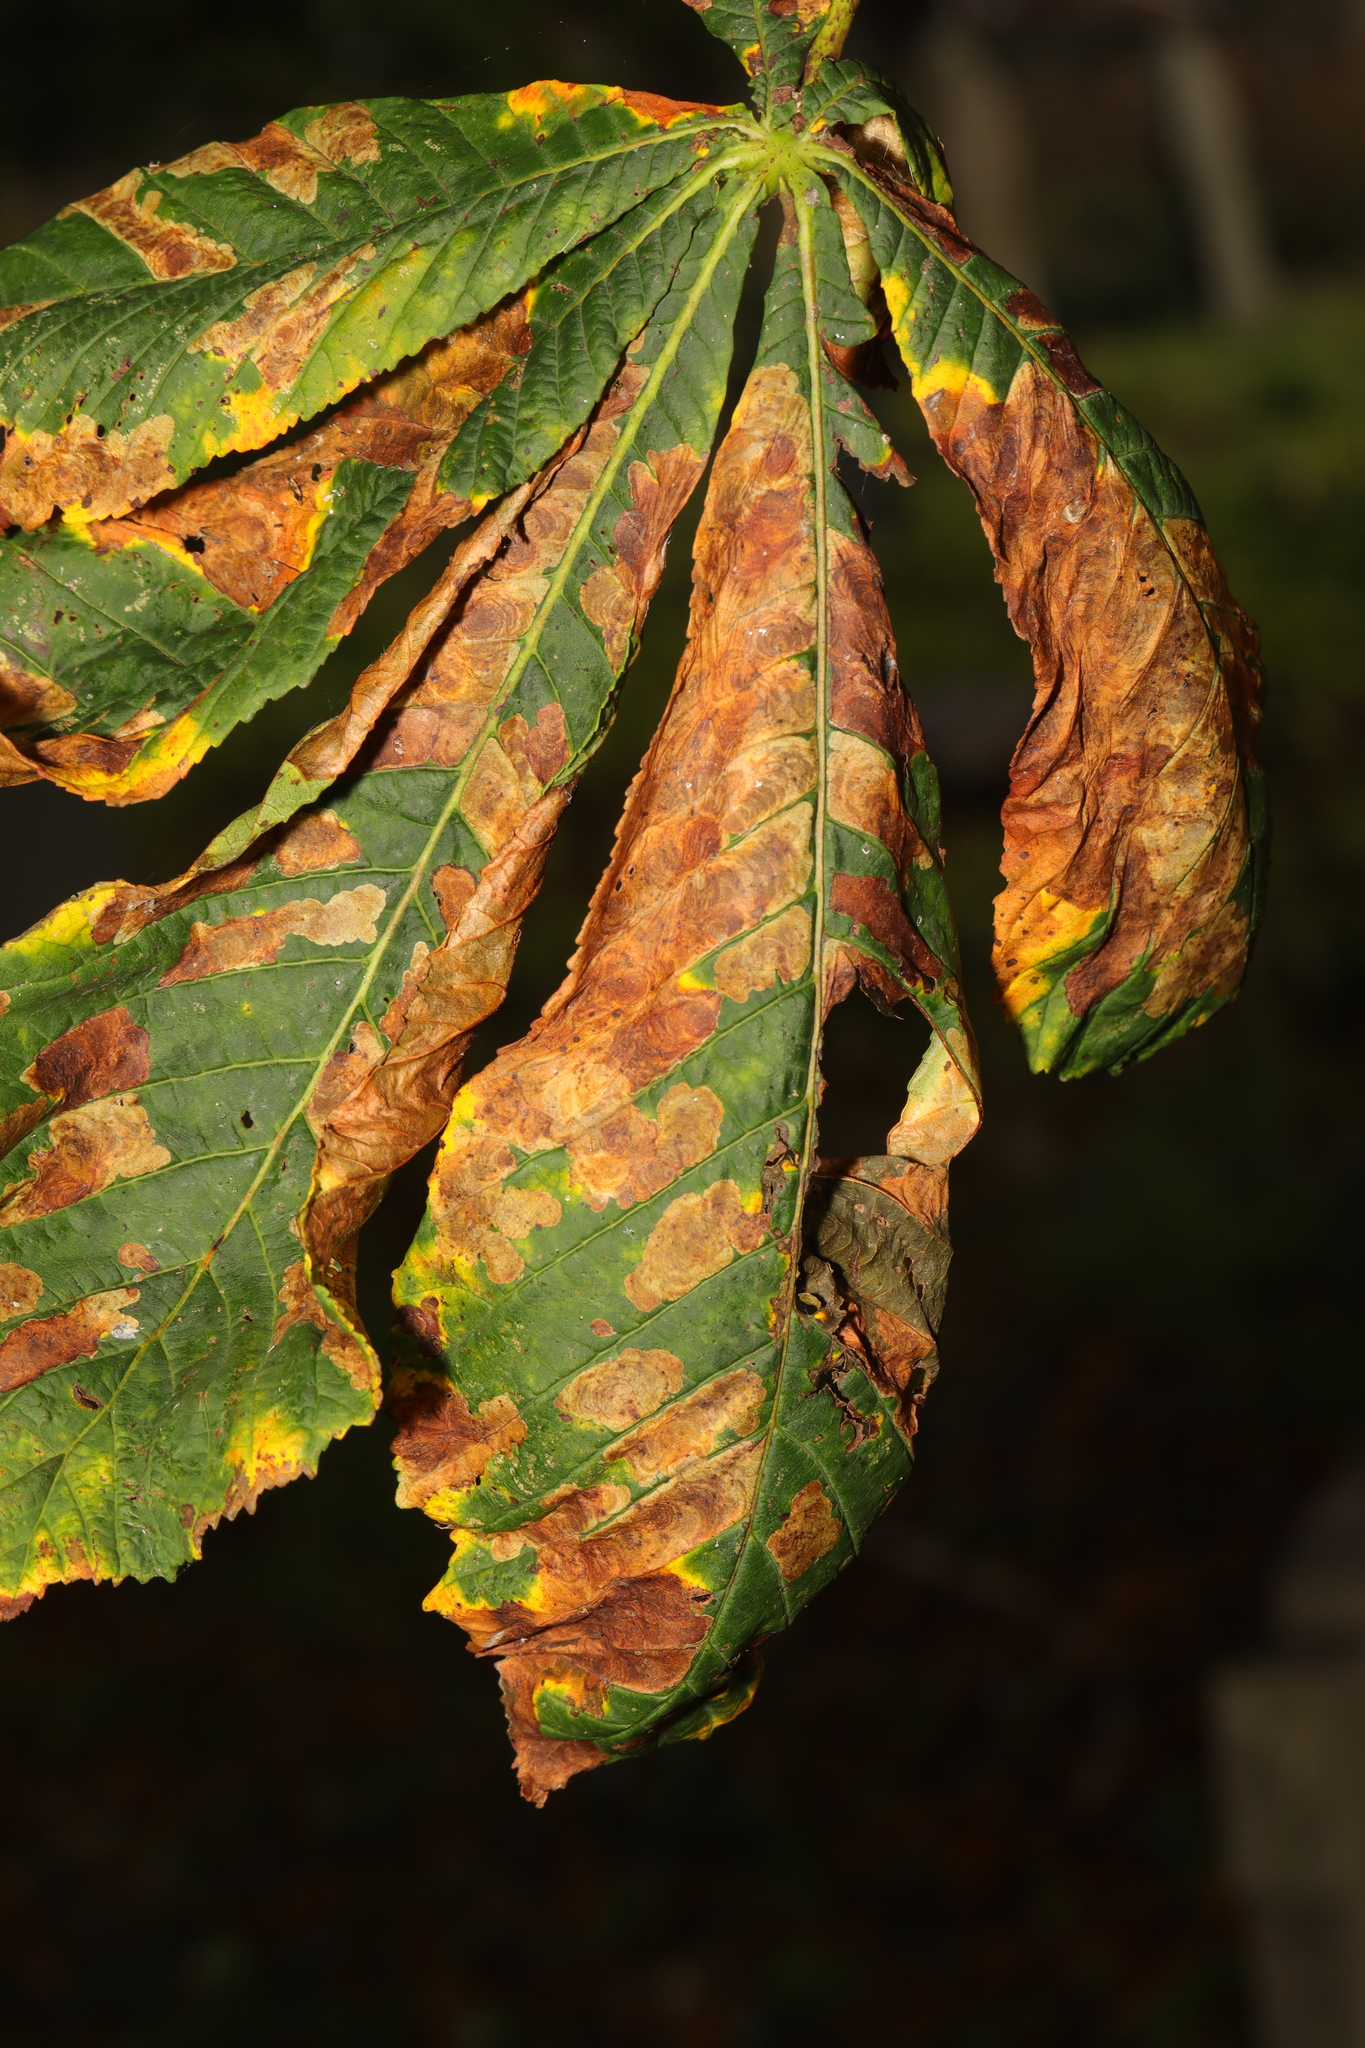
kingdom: Animalia
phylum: Arthropoda
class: Insecta
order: Lepidoptera
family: Gracillariidae
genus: Cameraria
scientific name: Cameraria ohridella
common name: Horse-chestnut leaf-miner
